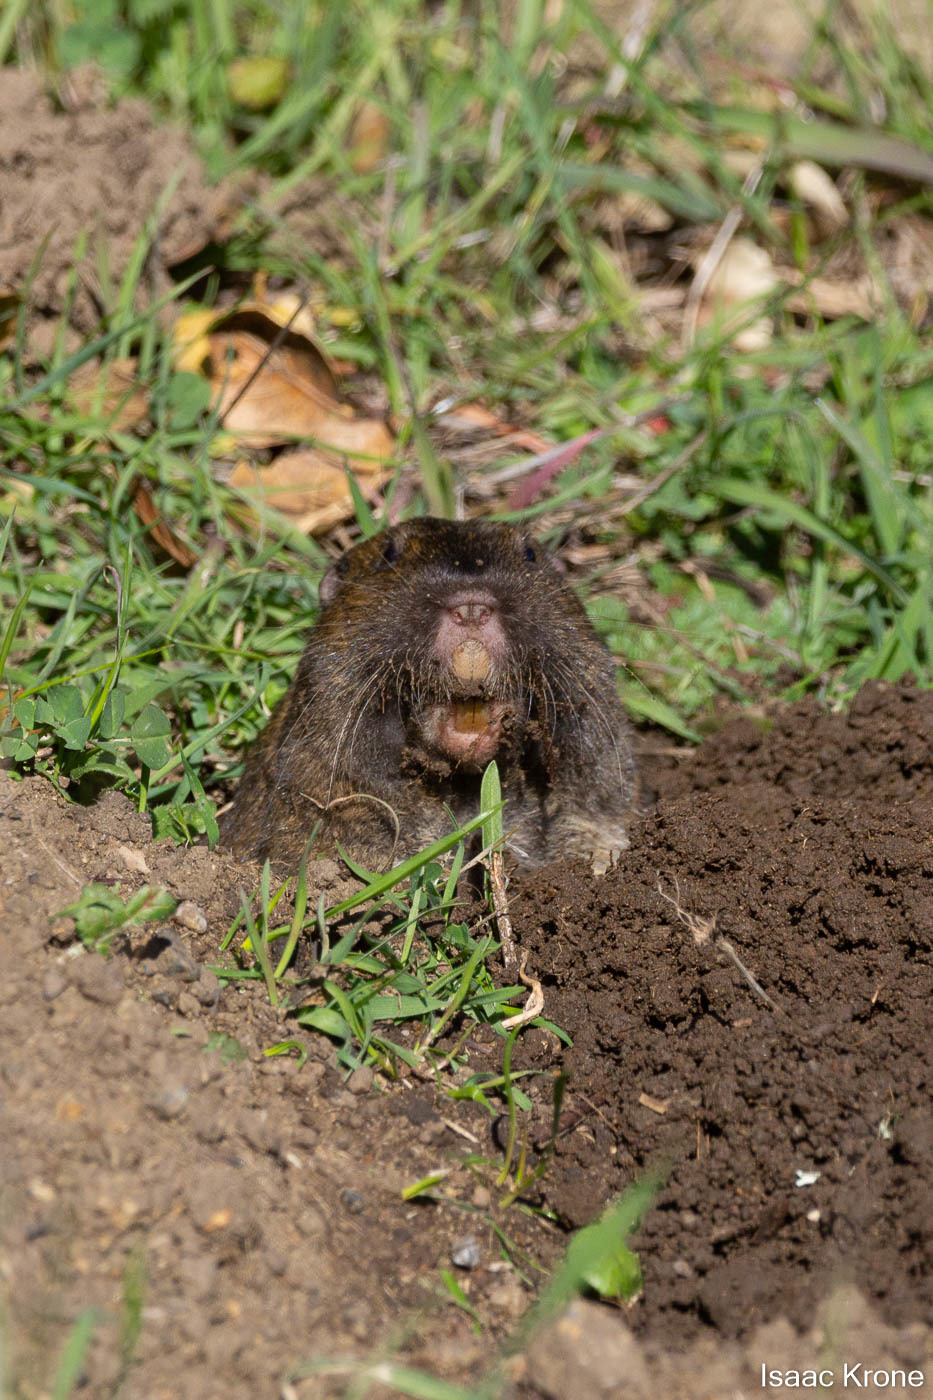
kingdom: Animalia
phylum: Chordata
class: Mammalia
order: Rodentia
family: Geomyidae
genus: Thomomys
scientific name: Thomomys bottae
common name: Botta's pocket gopher
